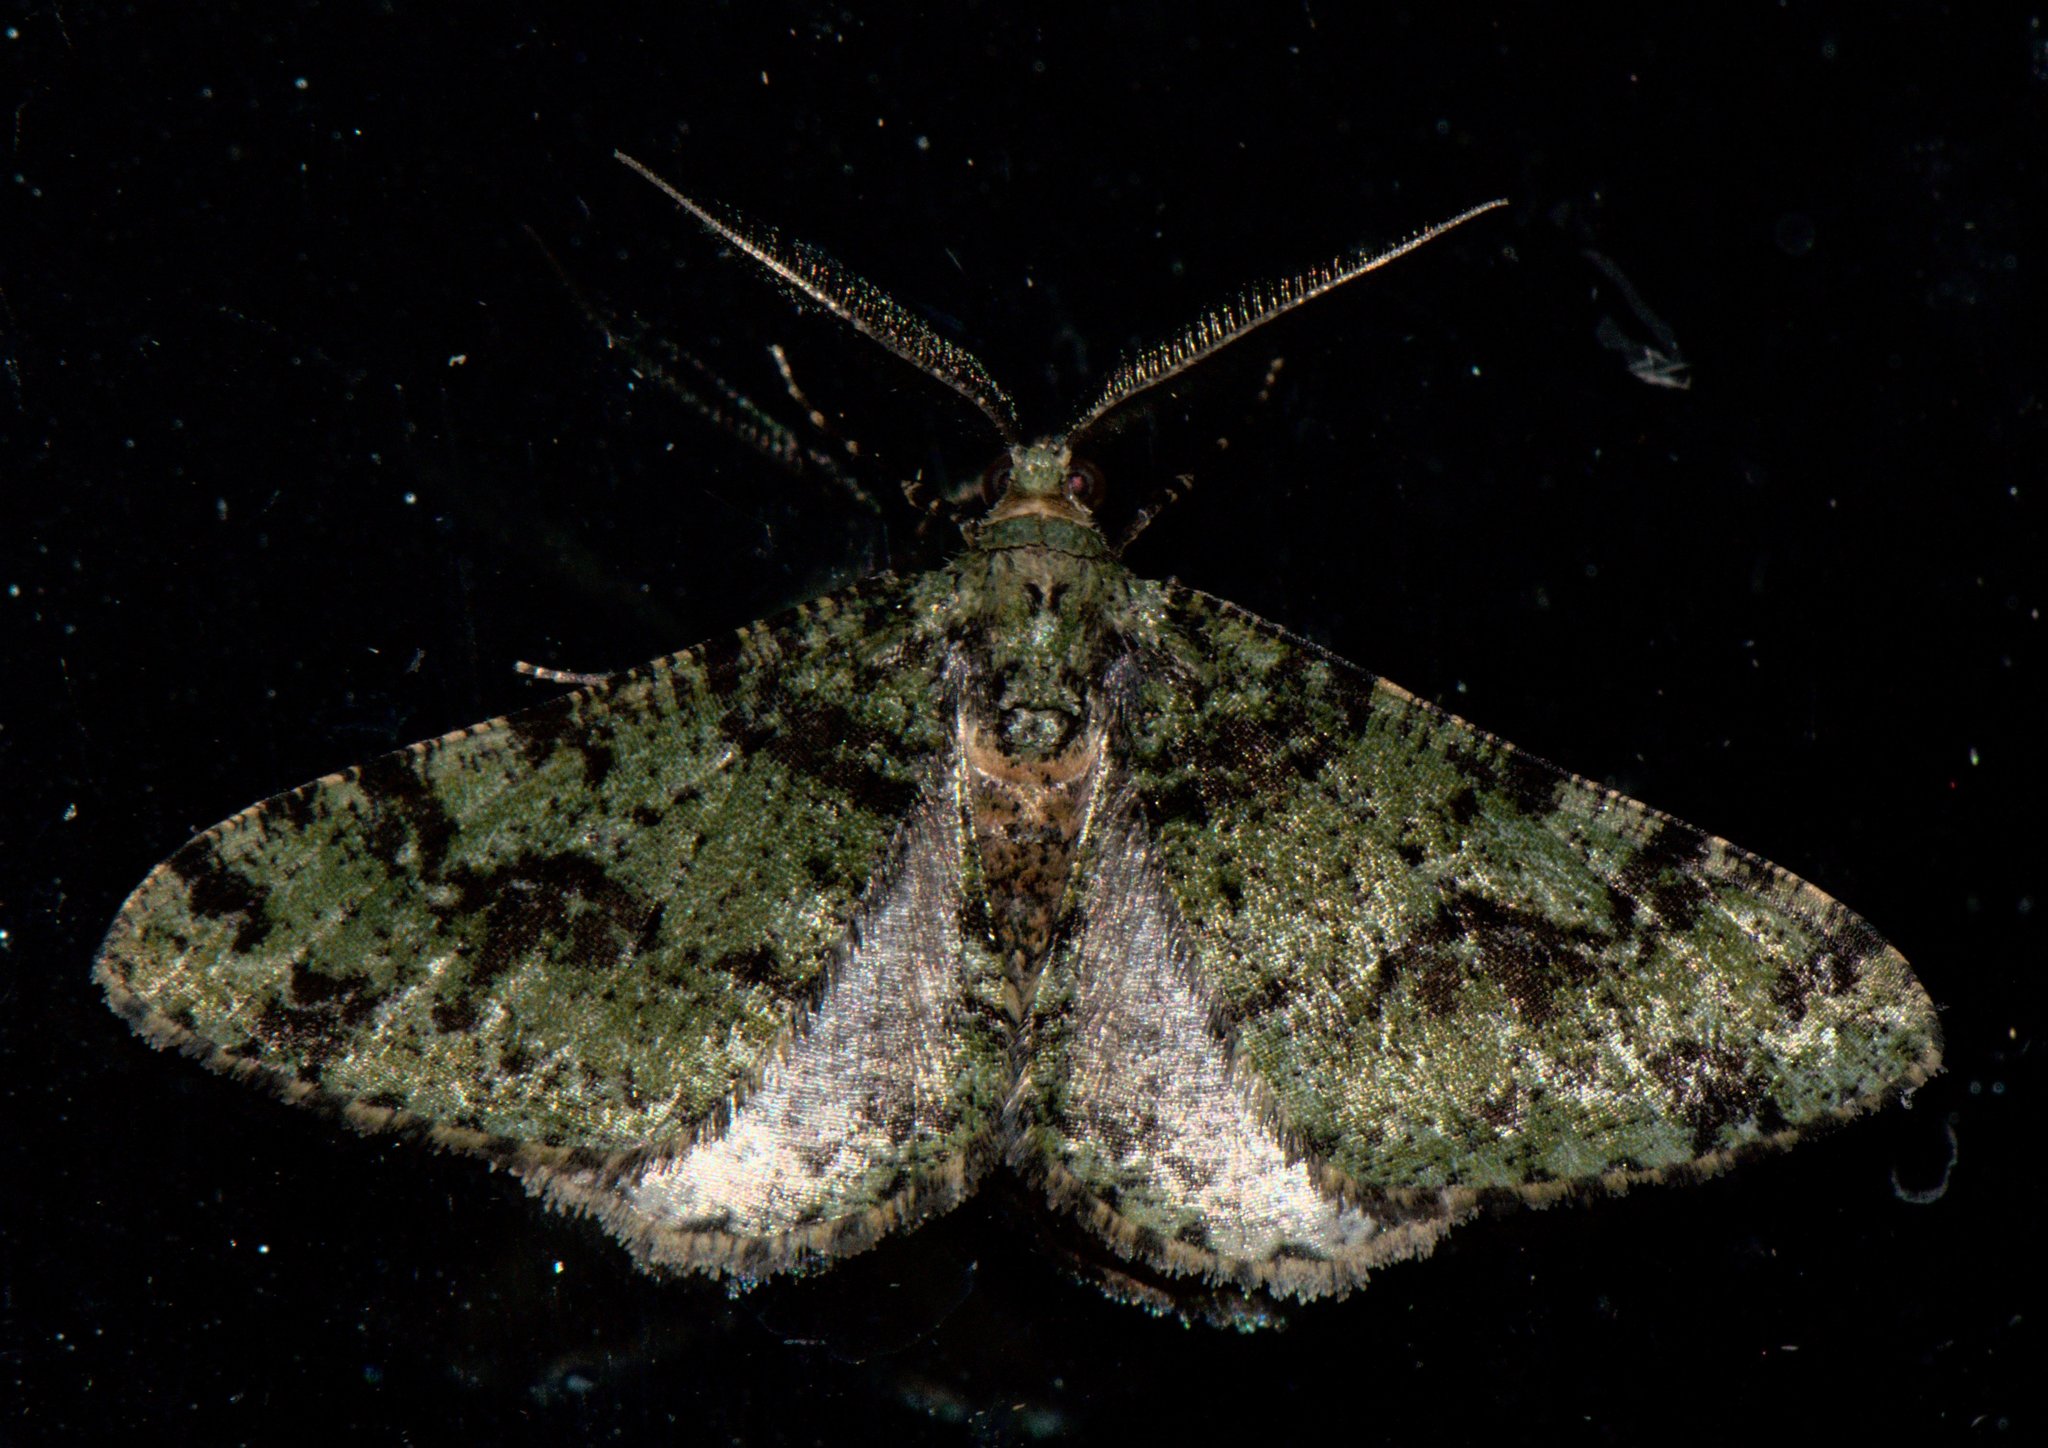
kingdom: Animalia
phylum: Arthropoda
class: Insecta
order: Lepidoptera
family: Geometridae
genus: Myrioblephara
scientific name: Myrioblephara duplexa
